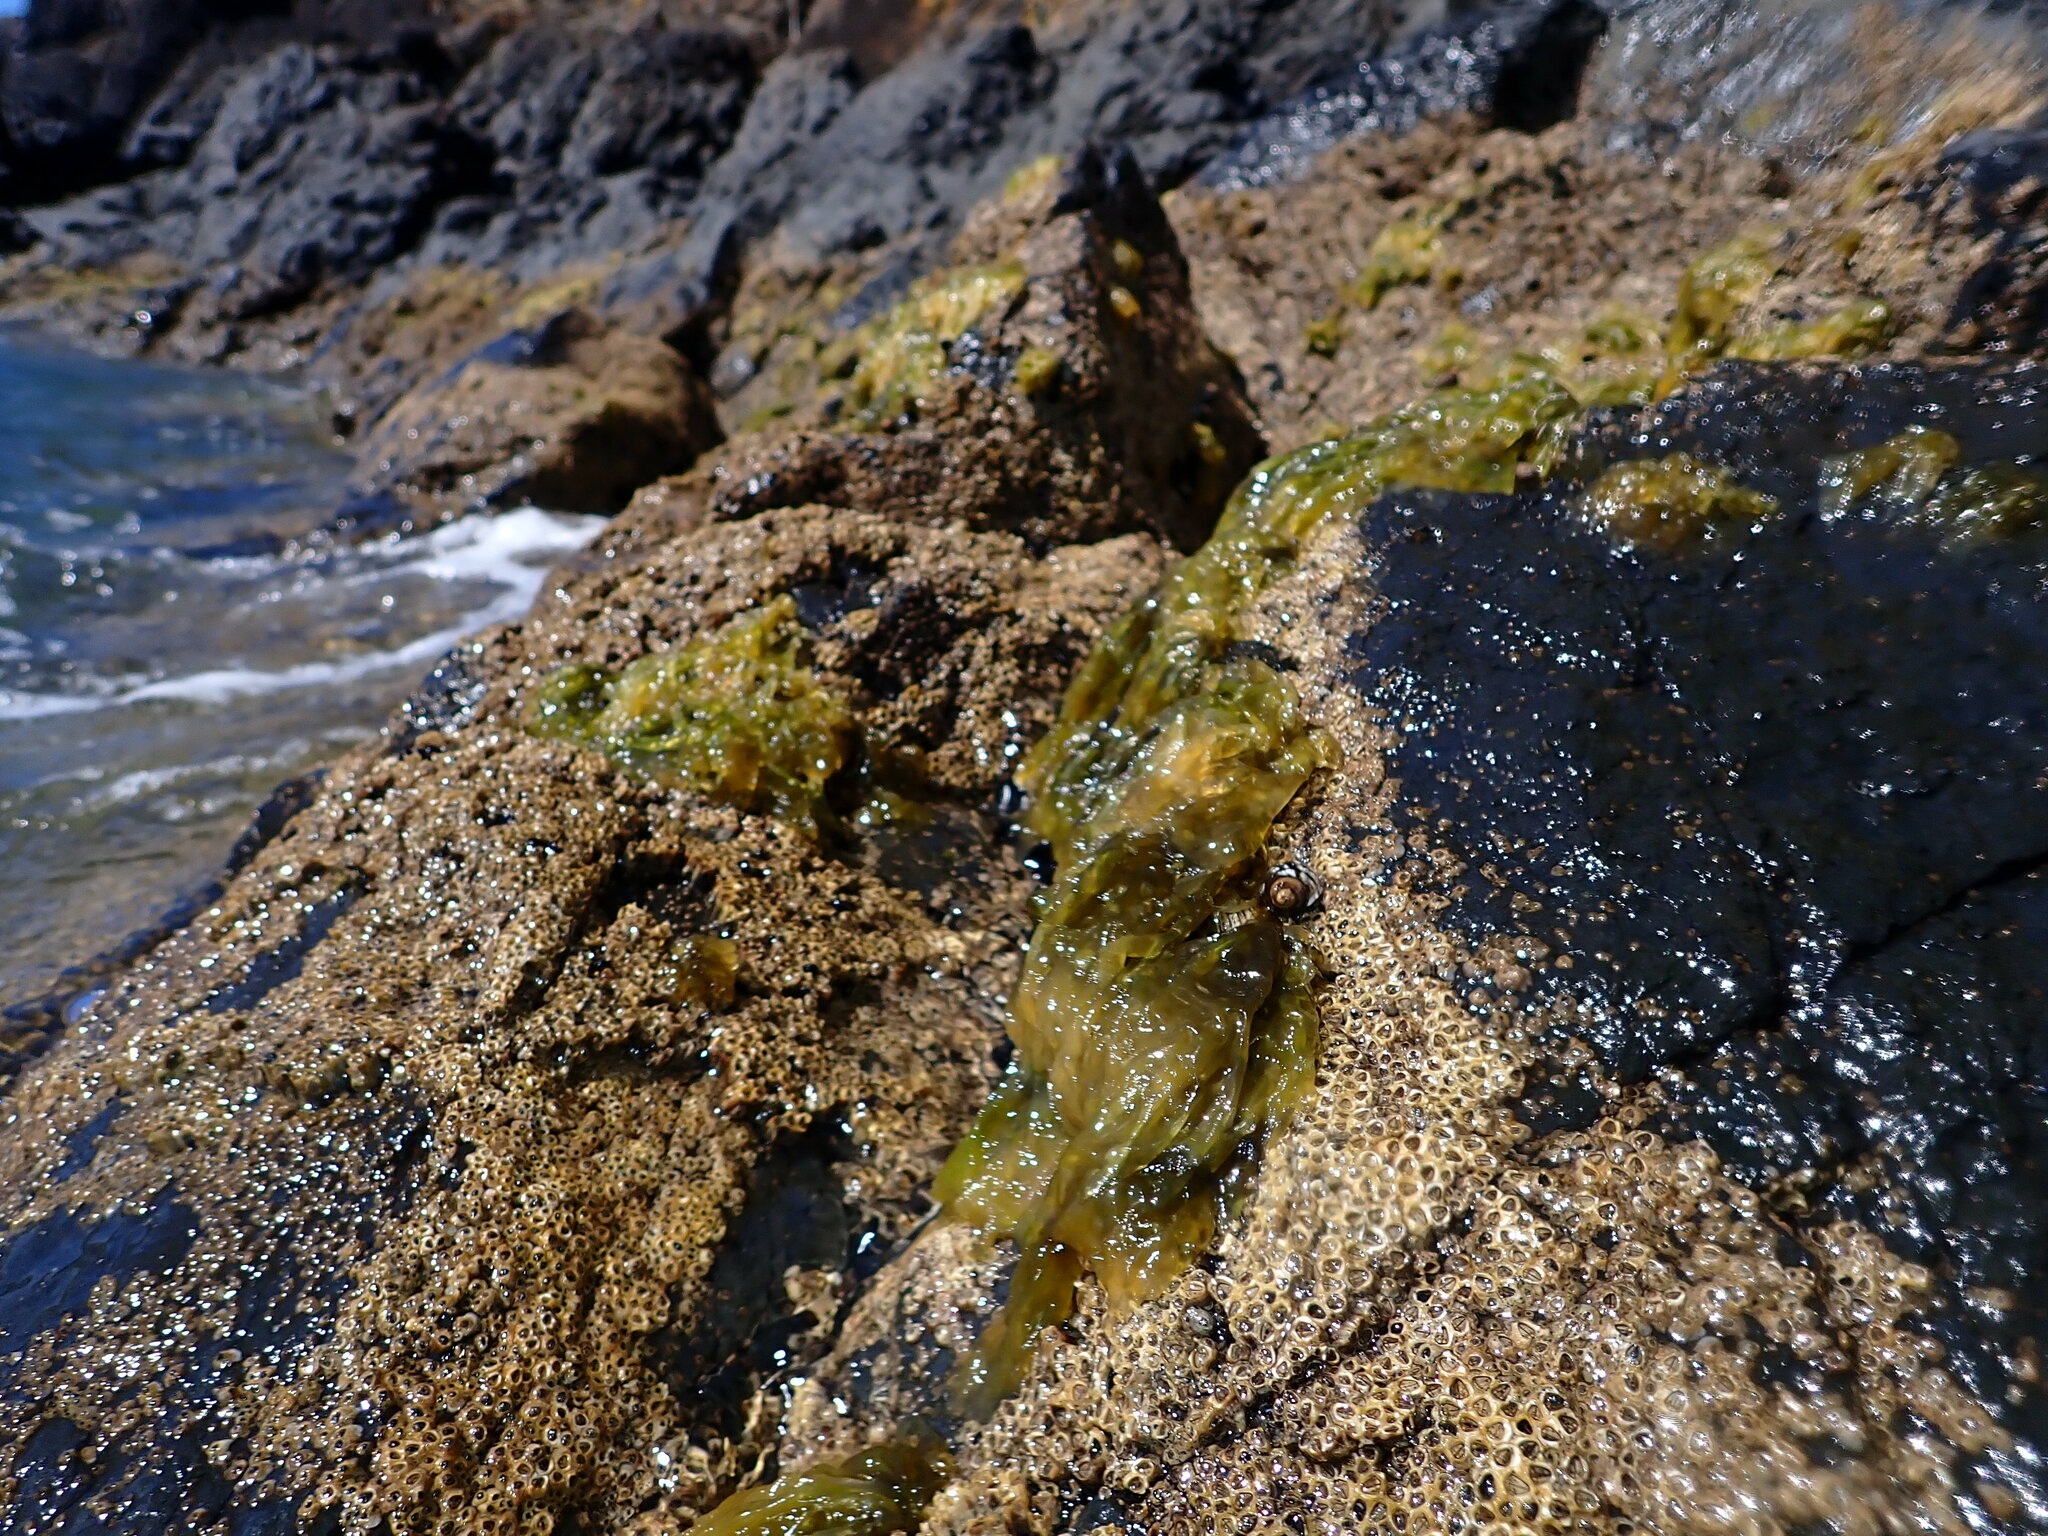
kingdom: Plantae
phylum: Rhodophyta
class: Bangiophyceae
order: Bangiales
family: Bangiaceae
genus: Clymene
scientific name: Clymene coleana
